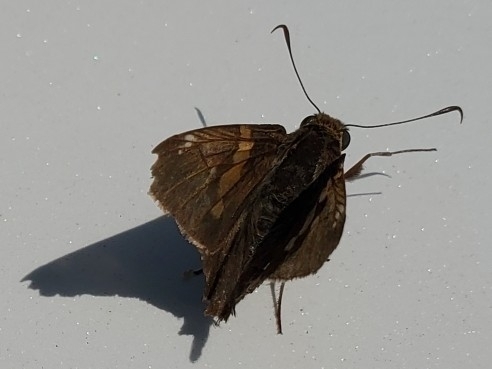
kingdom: Animalia
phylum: Arthropoda
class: Insecta
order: Lepidoptera
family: Hesperiidae
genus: Epargyreus
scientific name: Epargyreus clarus
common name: Silver-spotted skipper
